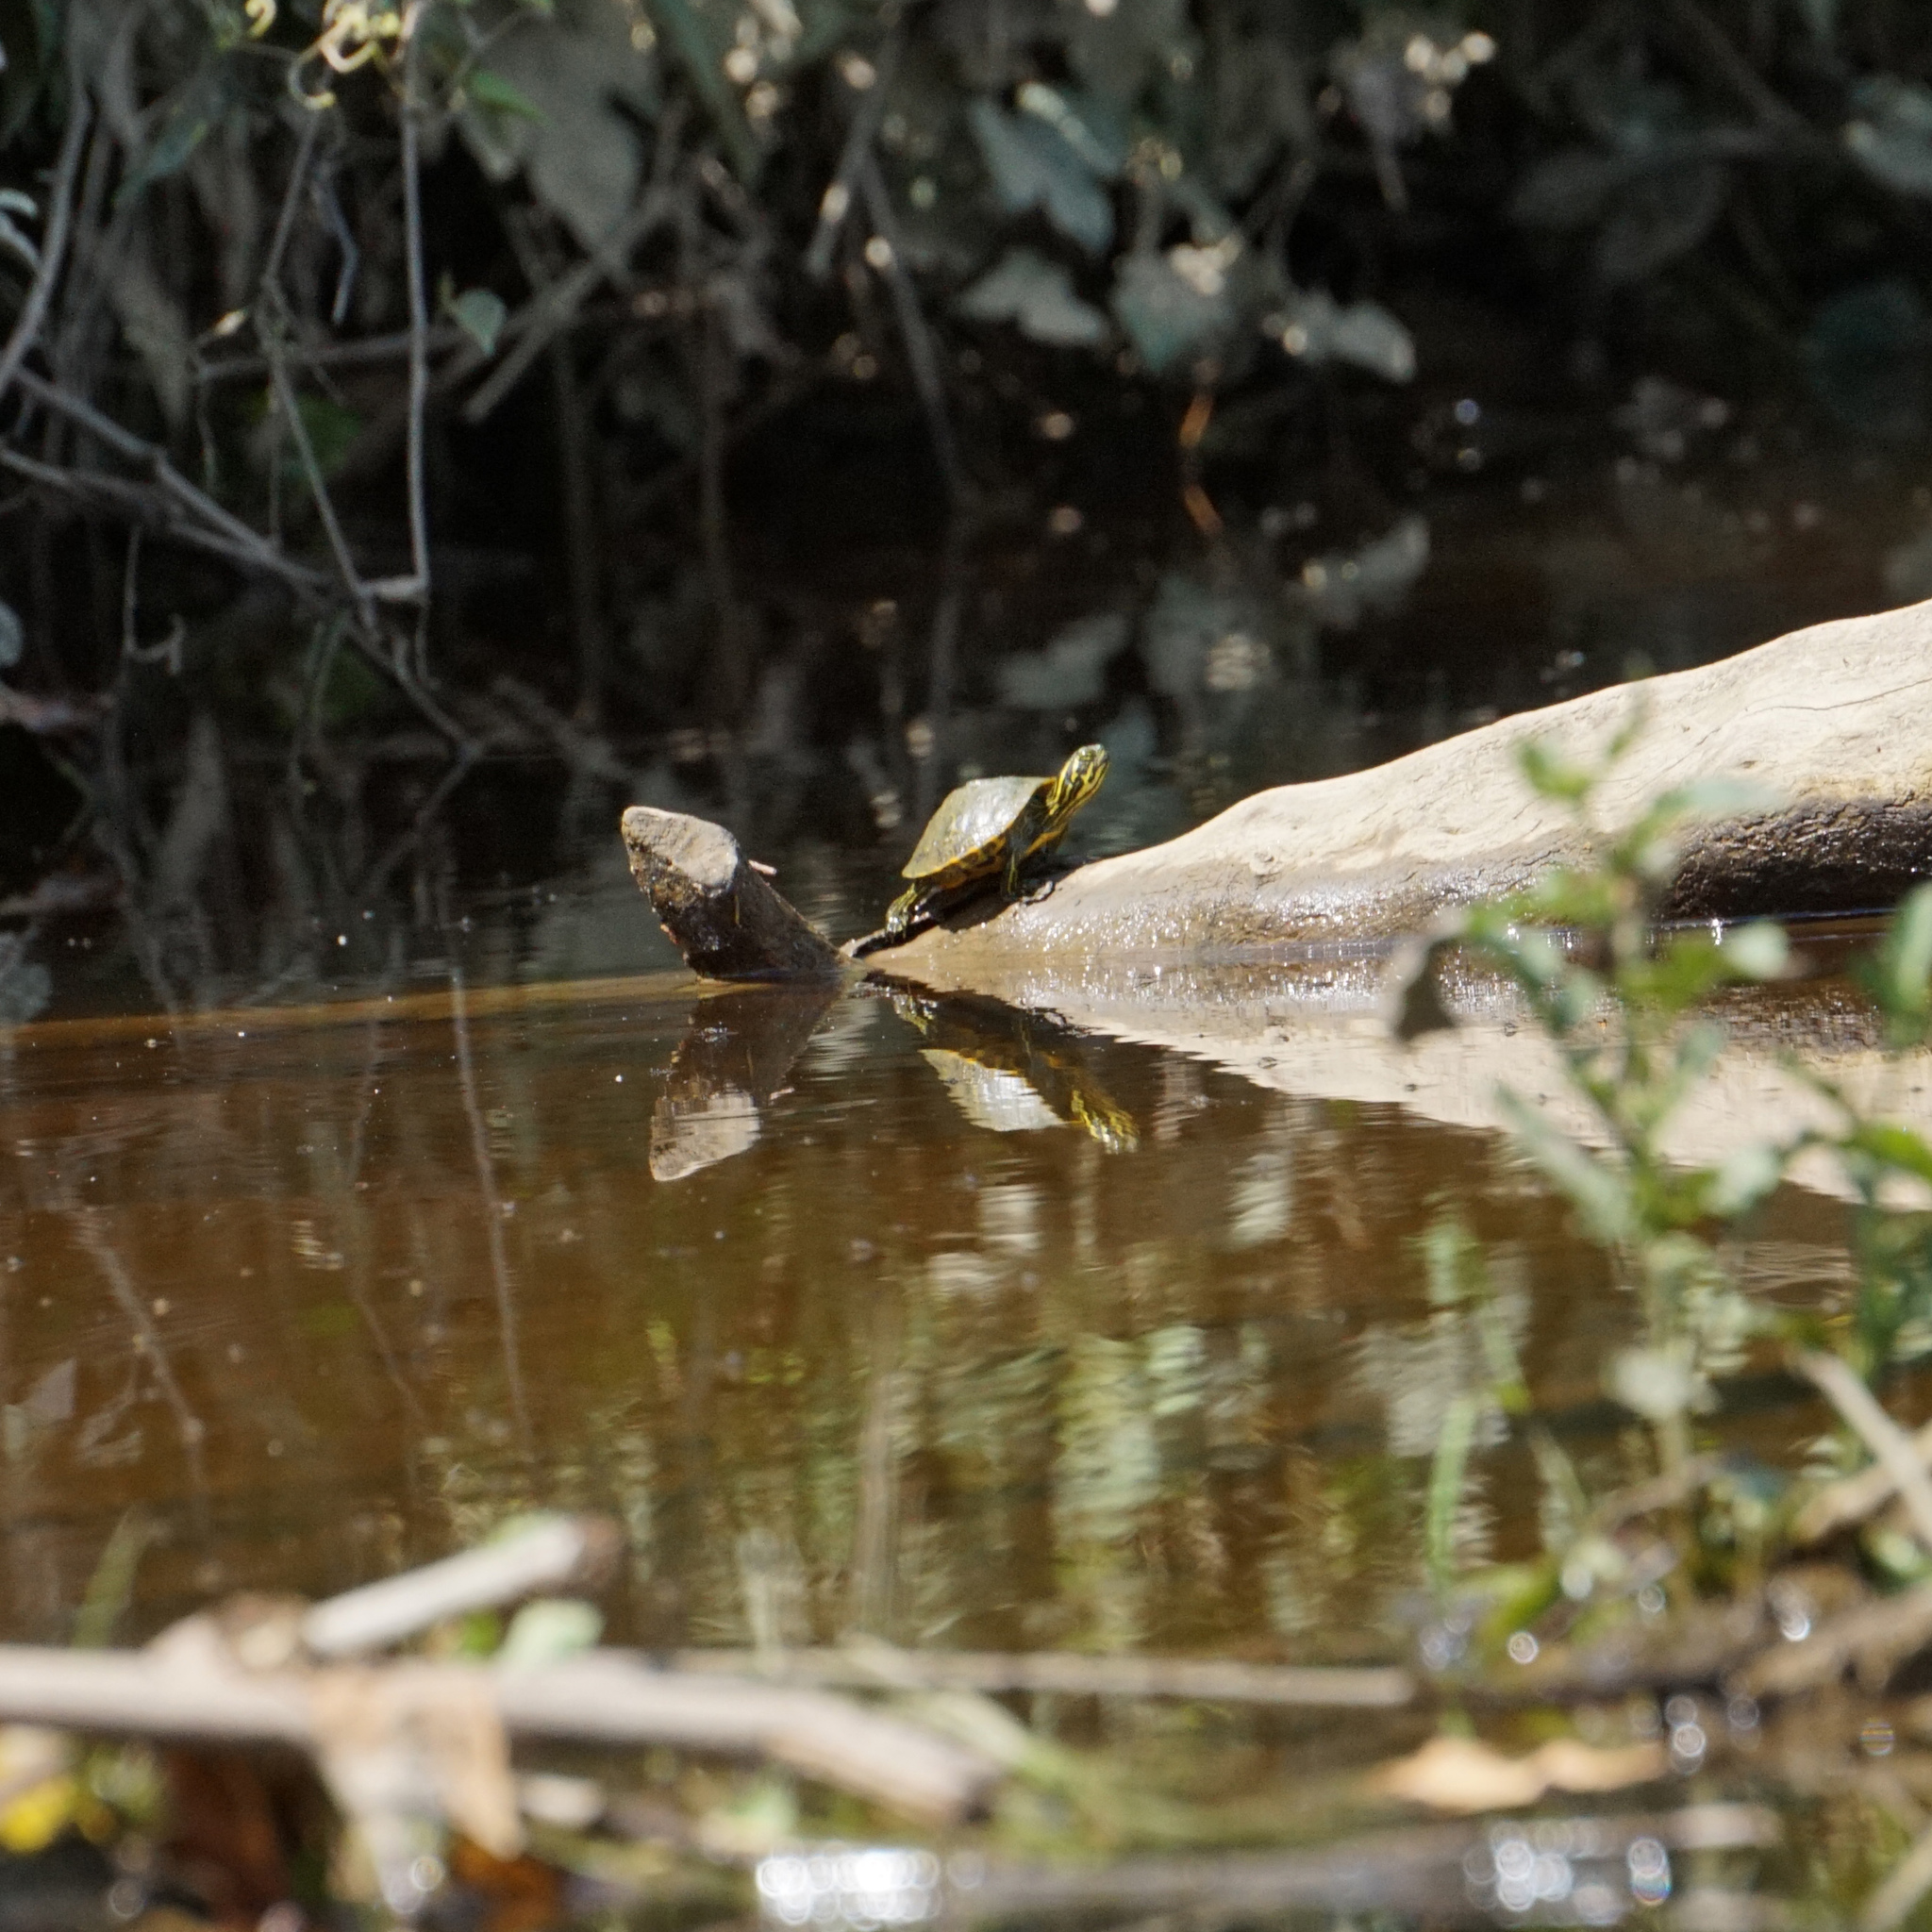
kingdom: Animalia
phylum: Chordata
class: Testudines
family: Emydidae
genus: Pseudemys
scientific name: Pseudemys concinna
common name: Eastern river cooter
